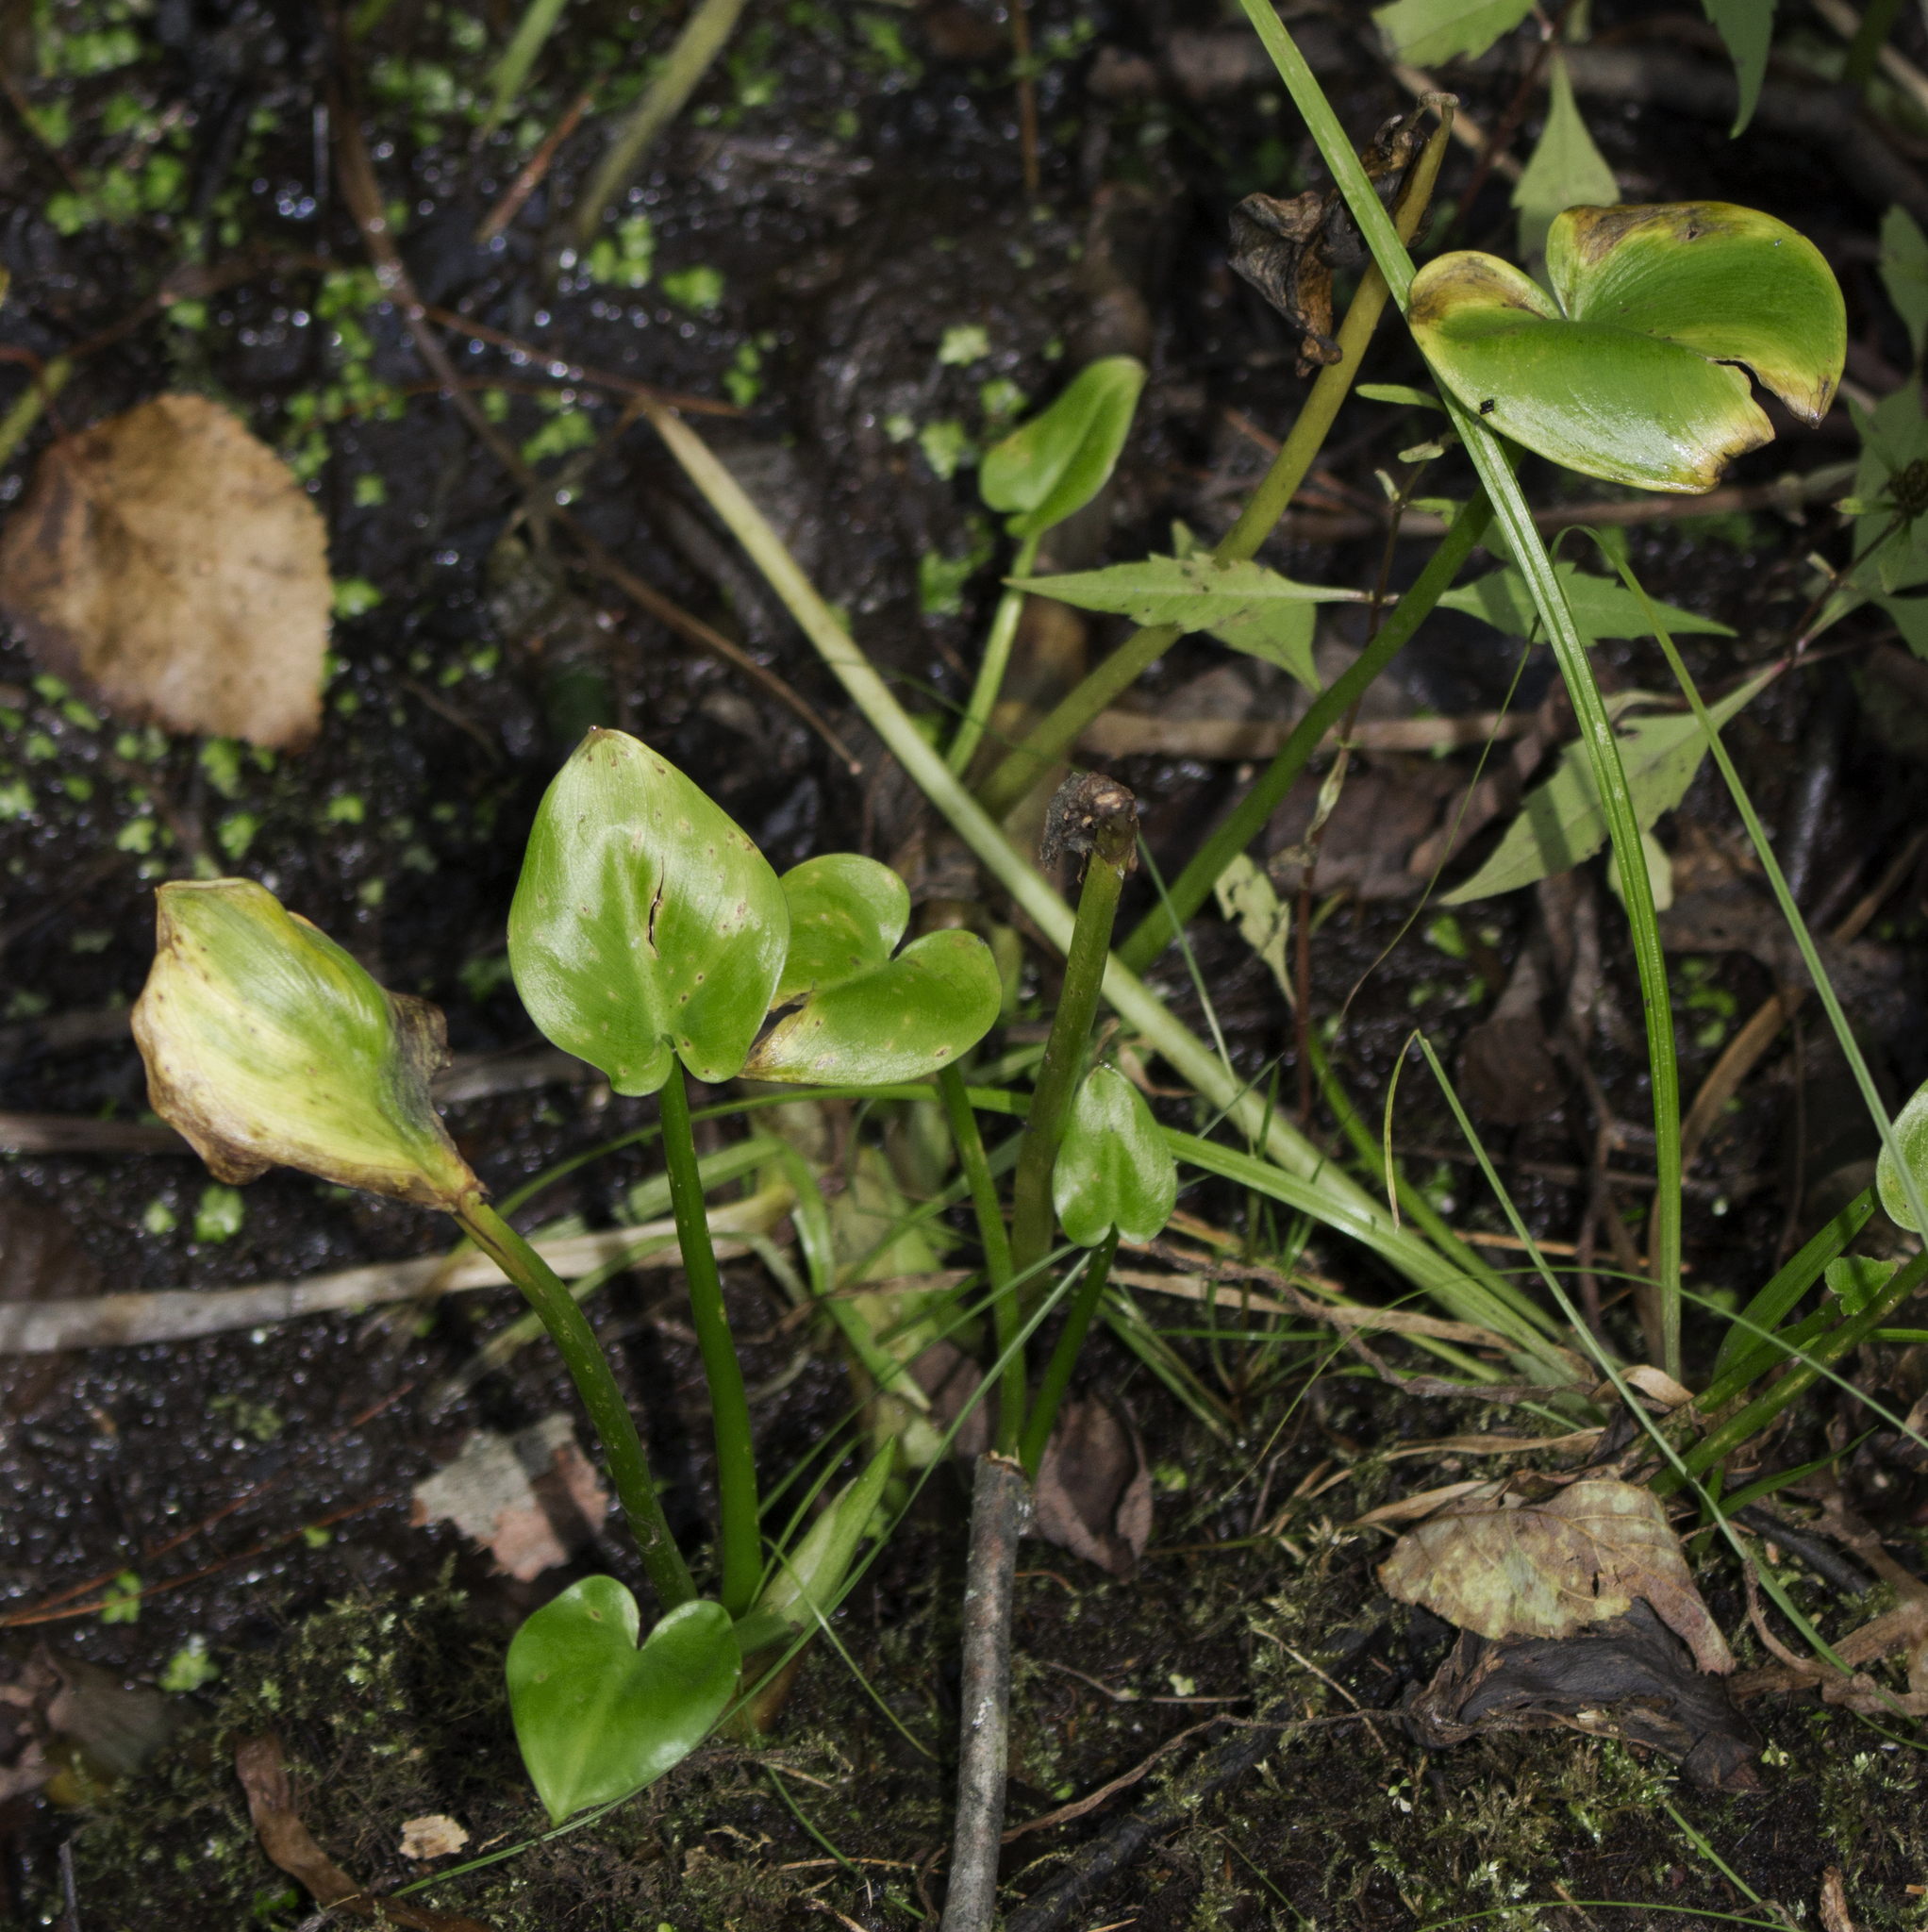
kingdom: Plantae
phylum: Tracheophyta
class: Liliopsida
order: Alismatales
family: Araceae
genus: Calla
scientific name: Calla palustris
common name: Bog arum
